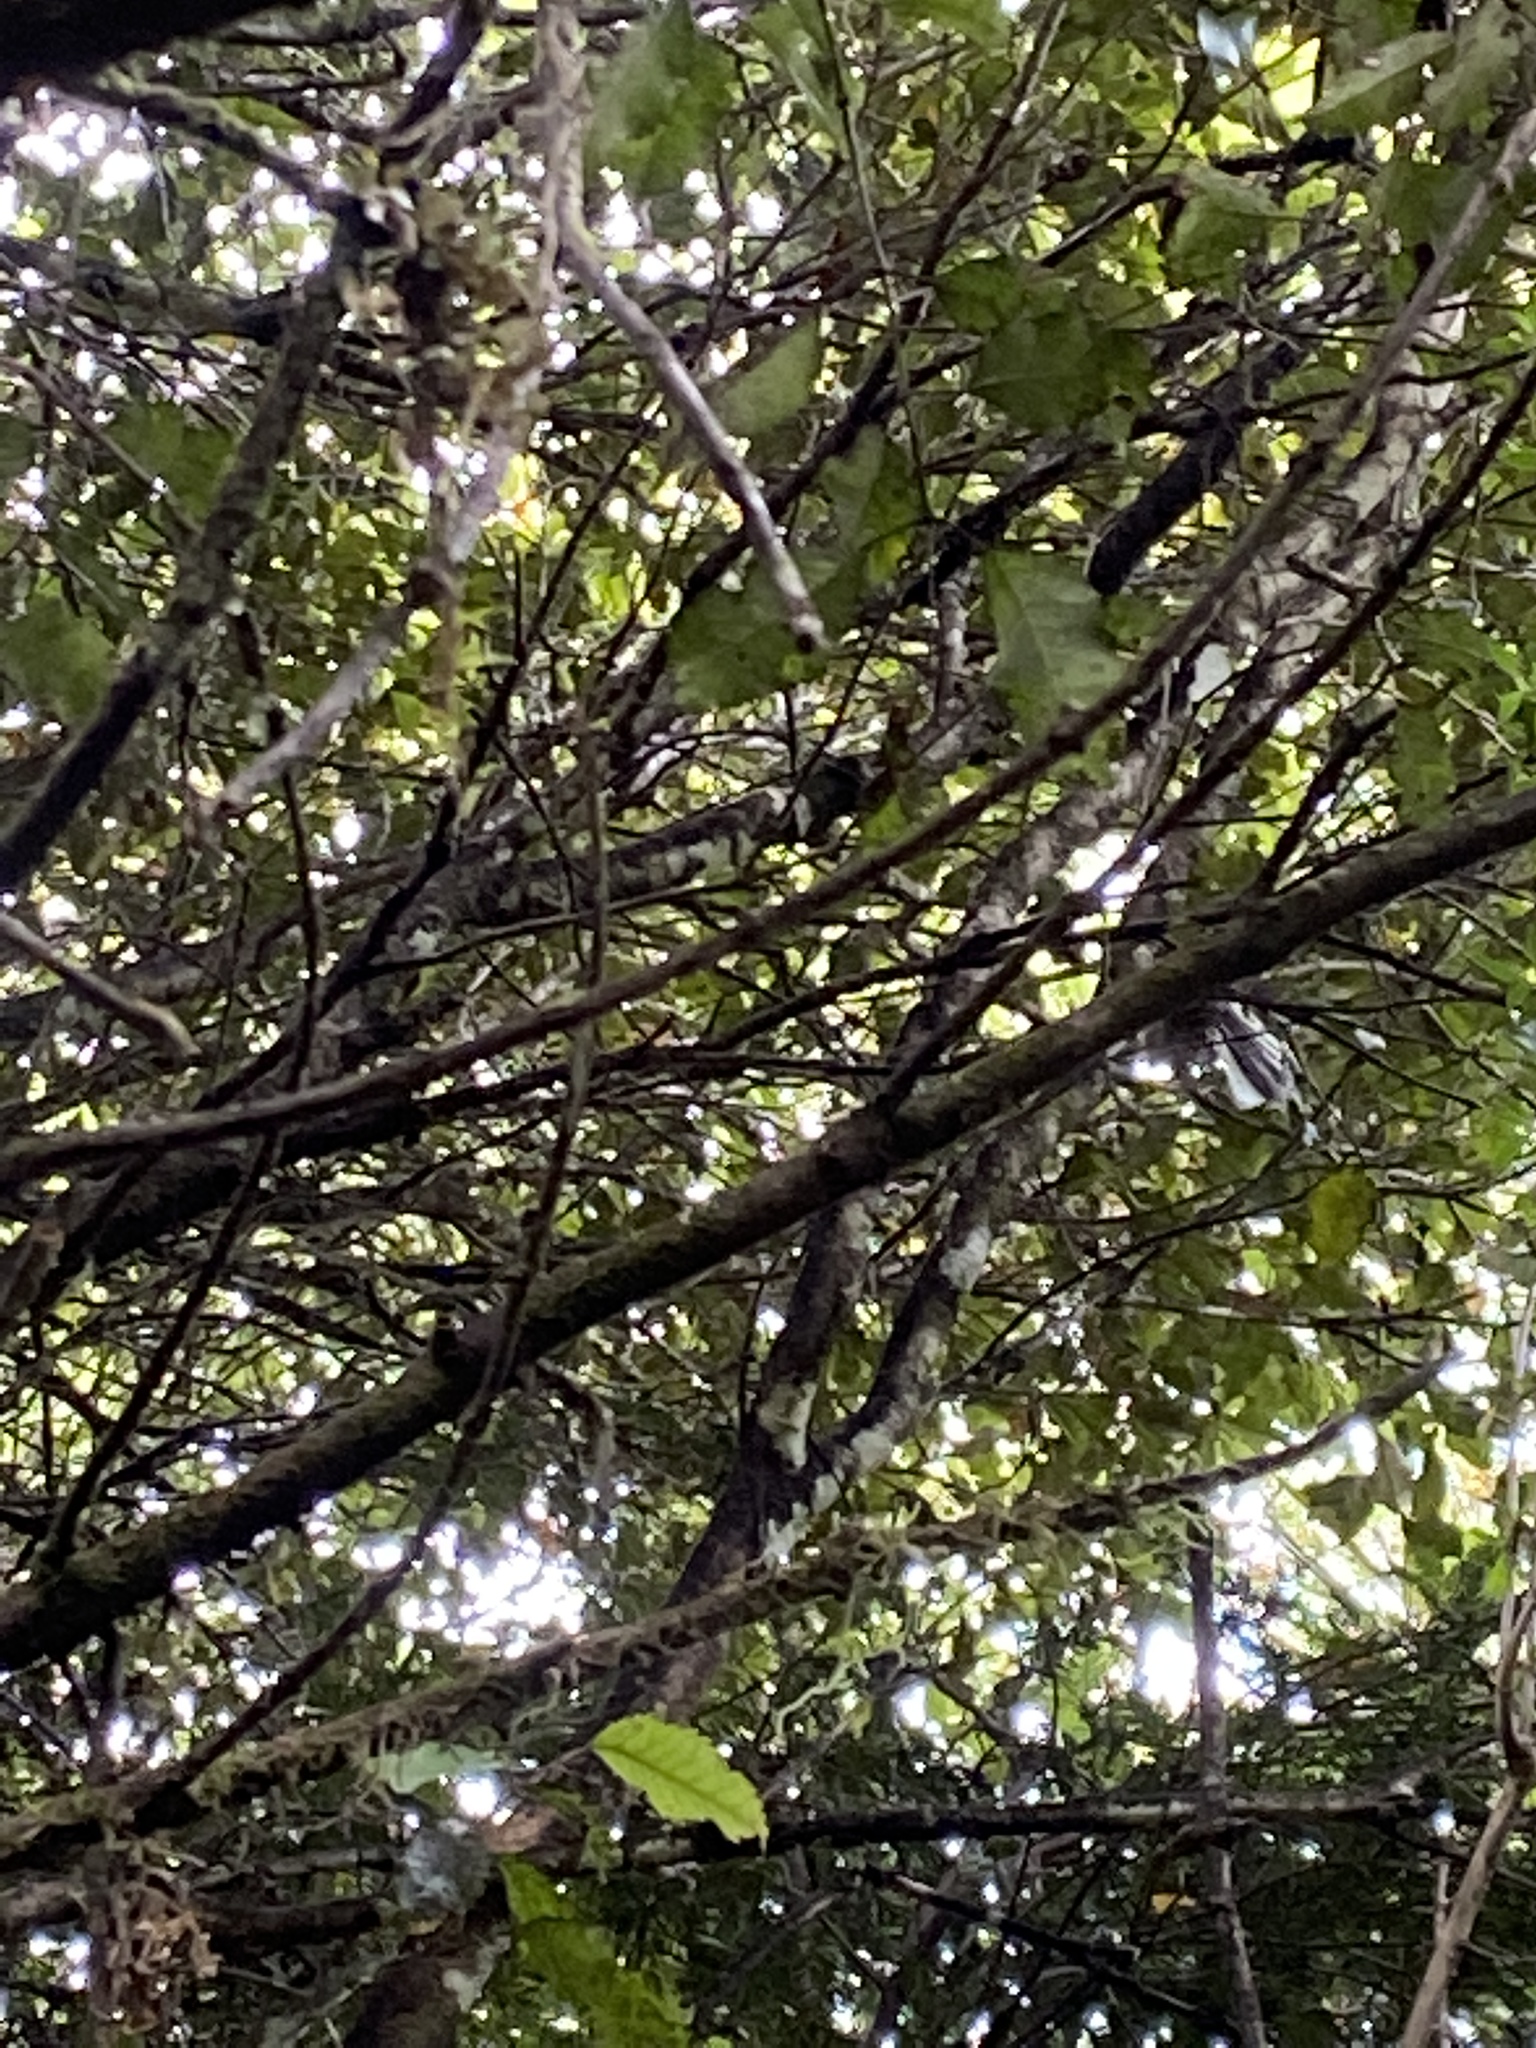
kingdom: Animalia
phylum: Chordata
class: Aves
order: Passeriformes
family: Rhipiduridae
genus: Rhipidura
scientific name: Rhipidura fuliginosa
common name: New zealand fantail
